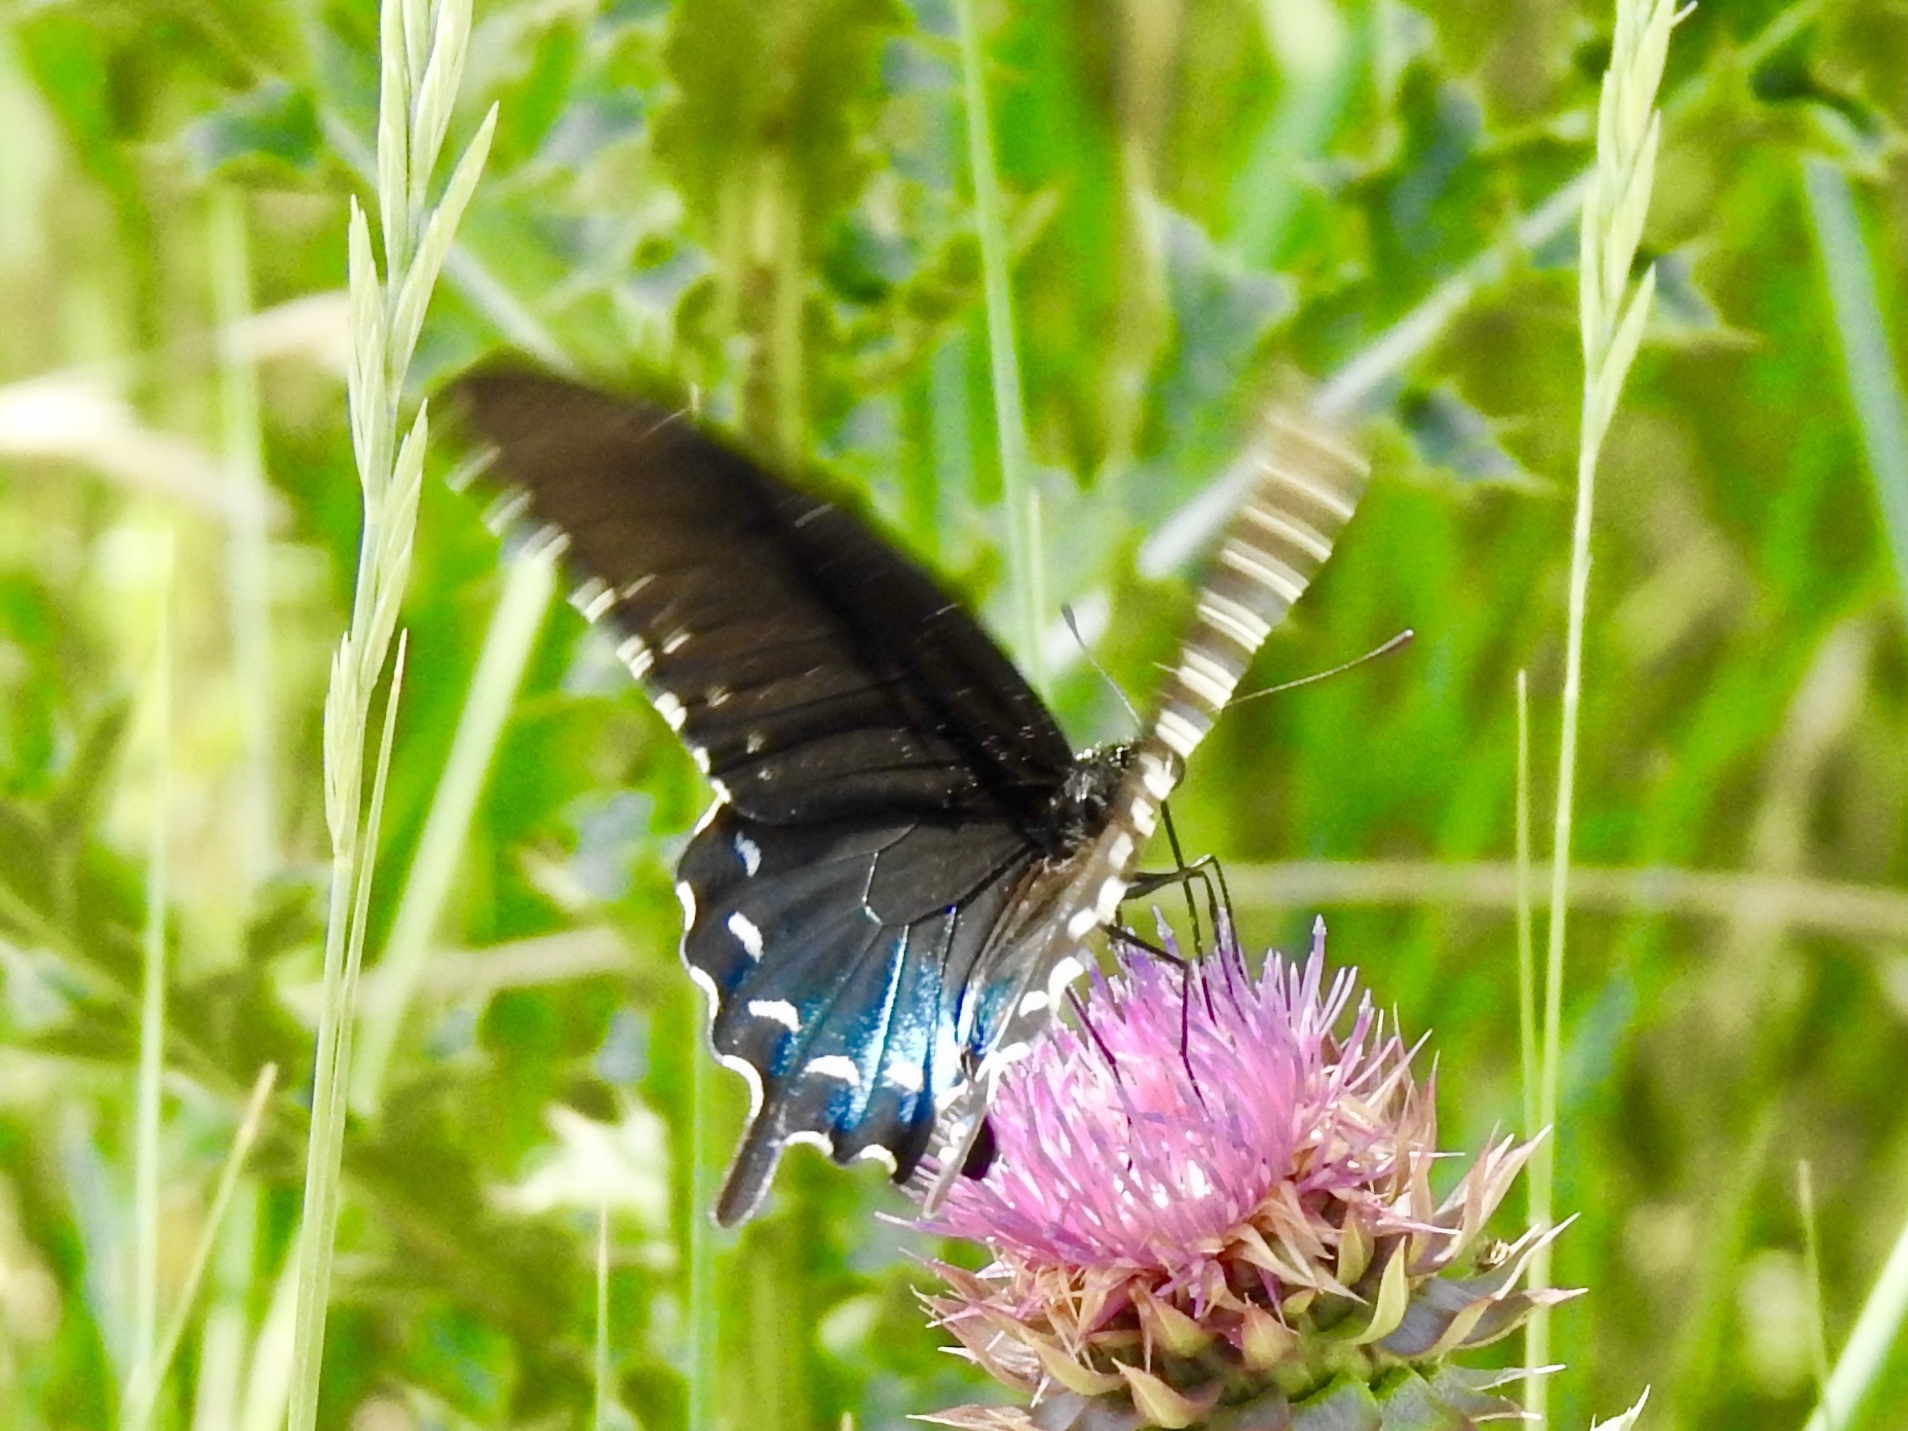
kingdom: Animalia
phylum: Arthropoda
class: Insecta
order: Lepidoptera
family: Papilionidae
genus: Battus
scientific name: Battus philenor
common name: Pipevine swallowtail
